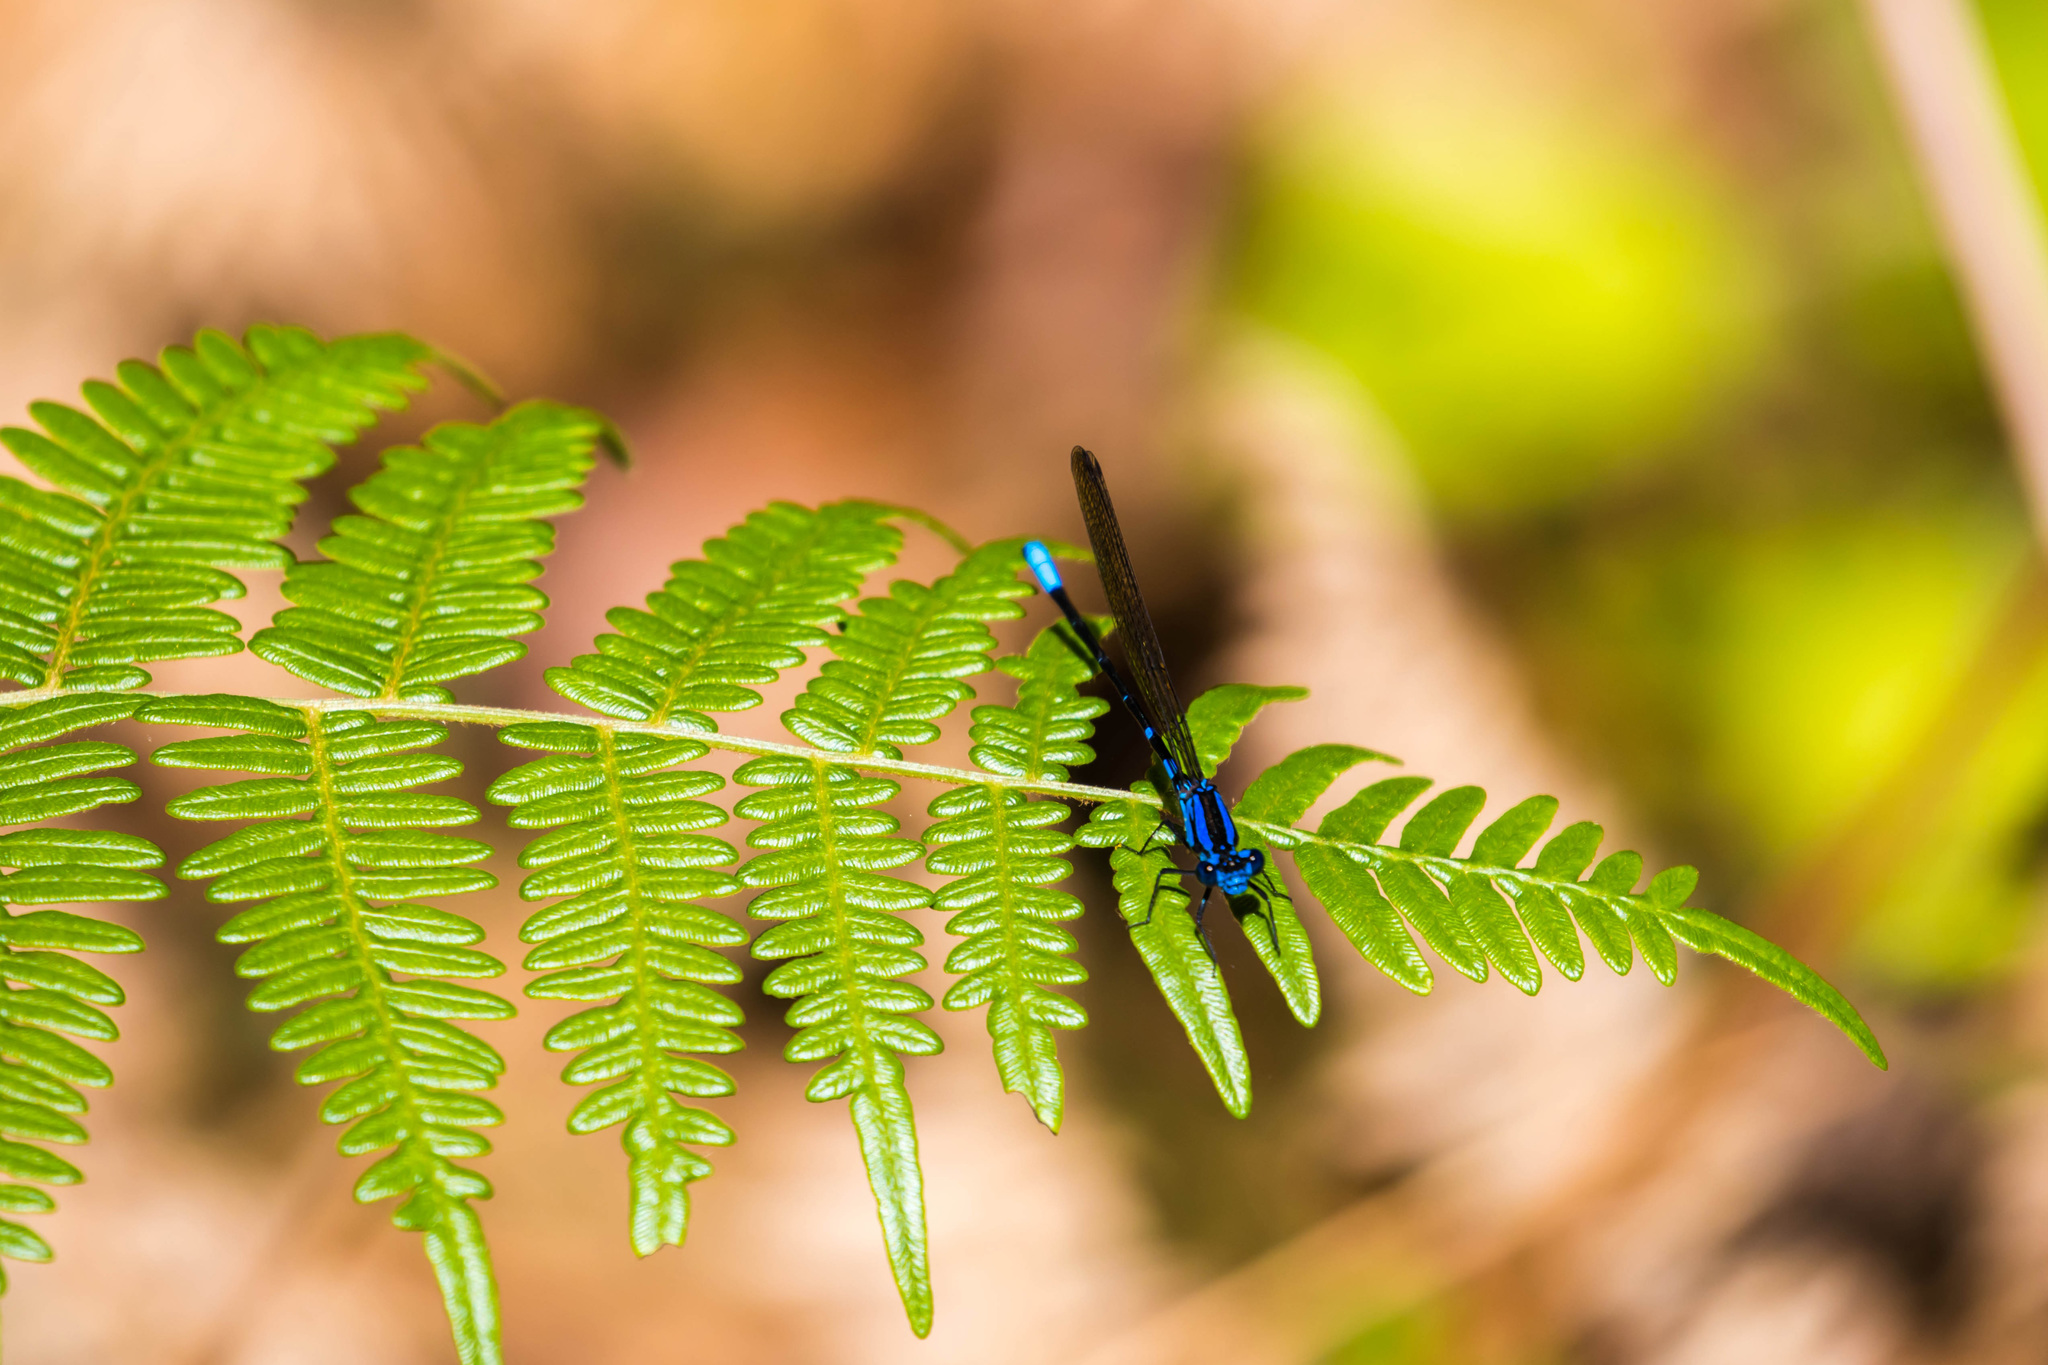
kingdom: Animalia
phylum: Arthropoda
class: Insecta
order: Odonata
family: Coenagrionidae
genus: Argia
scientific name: Argia terira
